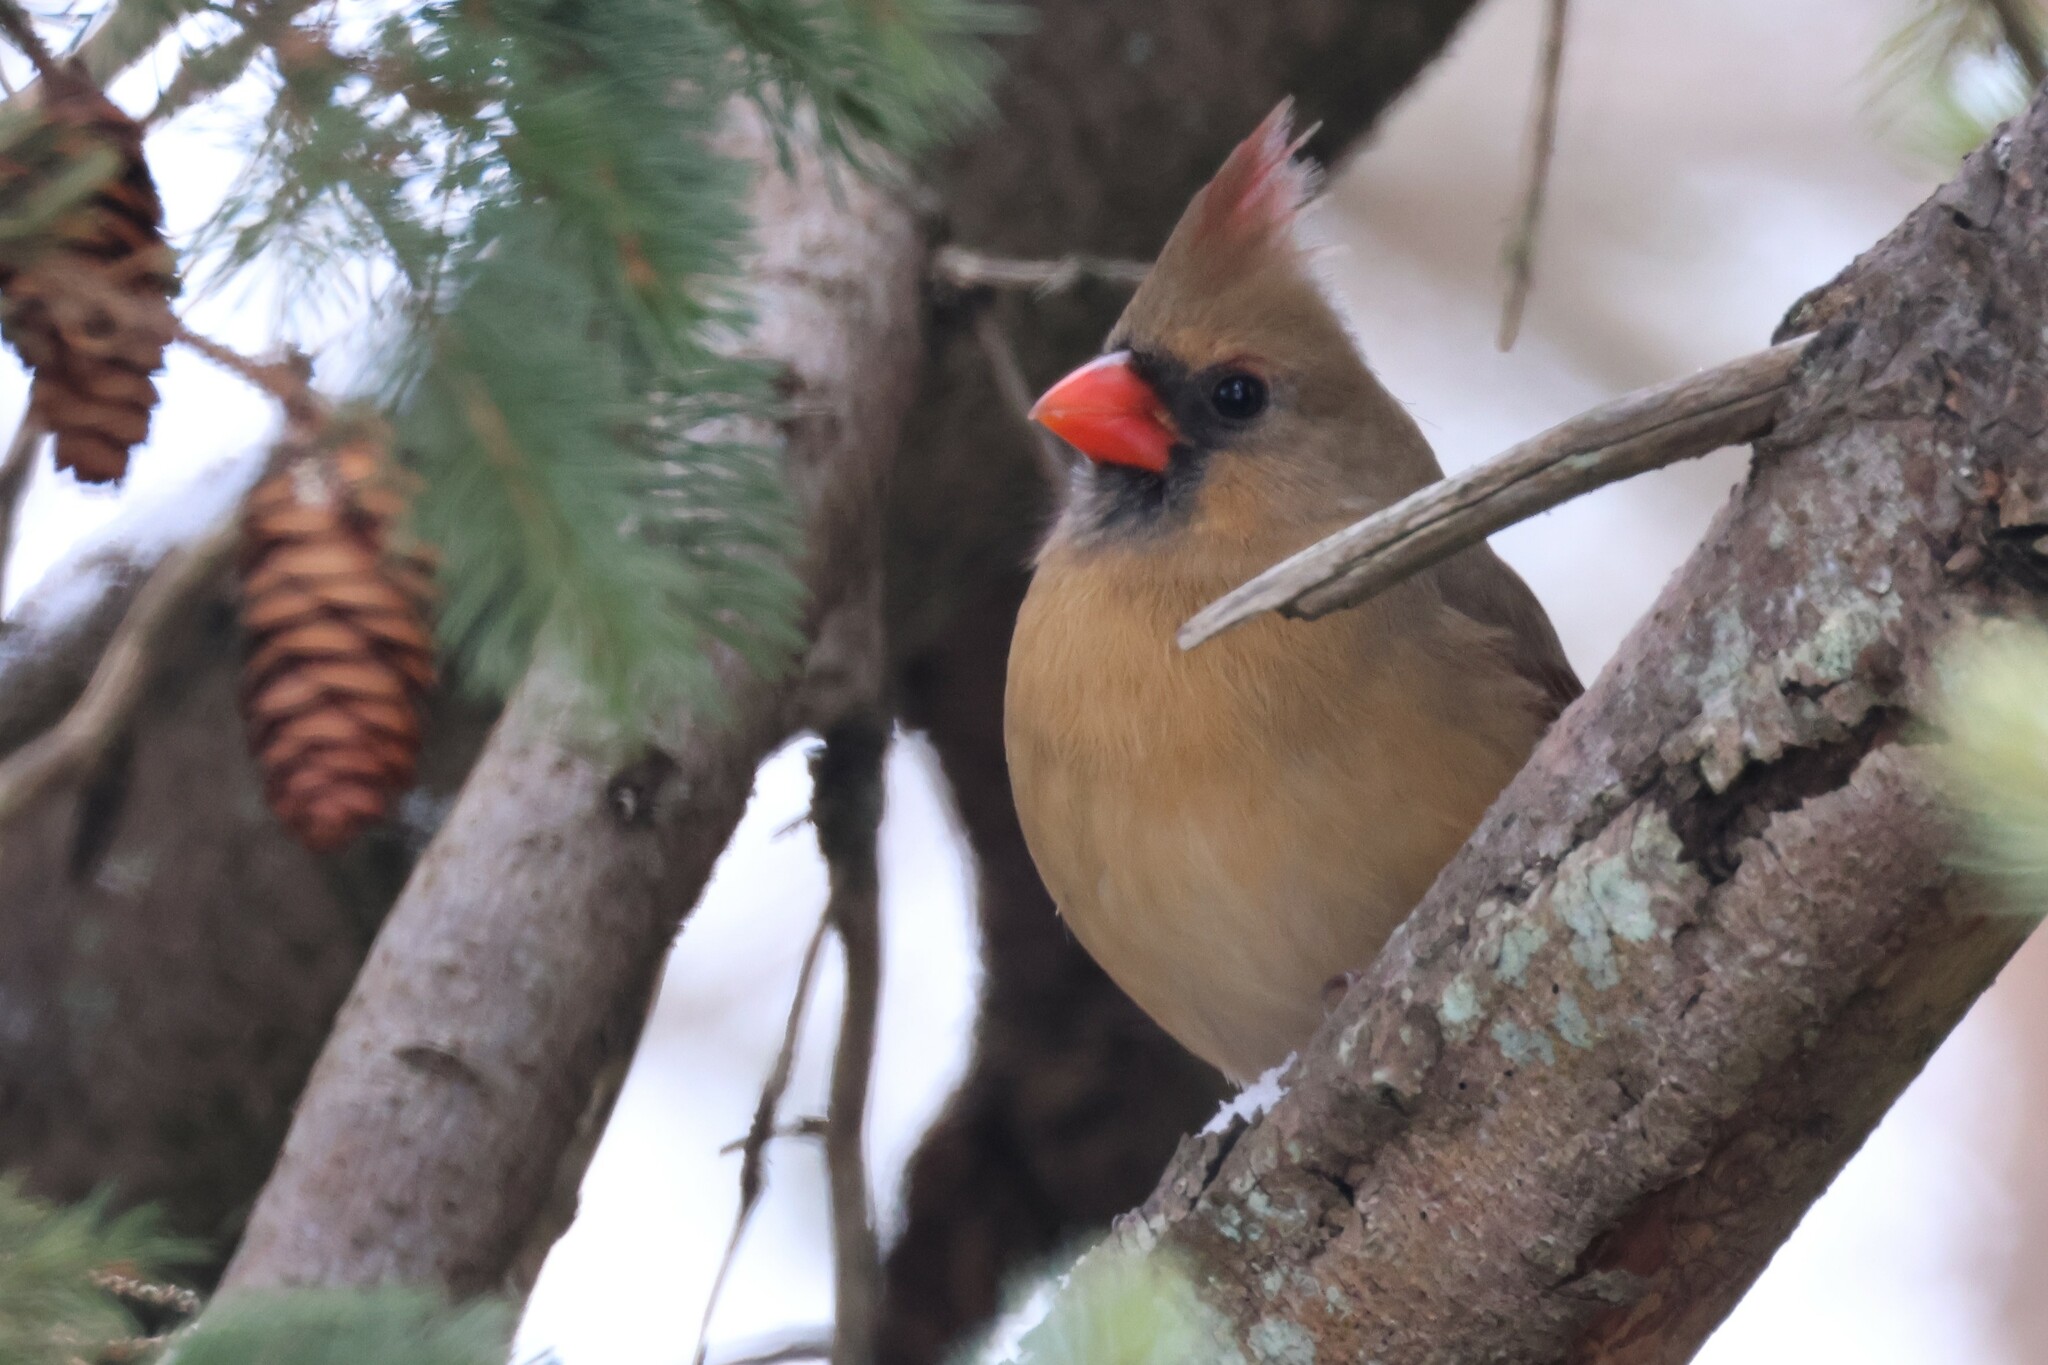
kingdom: Animalia
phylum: Chordata
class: Aves
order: Passeriformes
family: Cardinalidae
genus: Cardinalis
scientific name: Cardinalis cardinalis
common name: Northern cardinal
